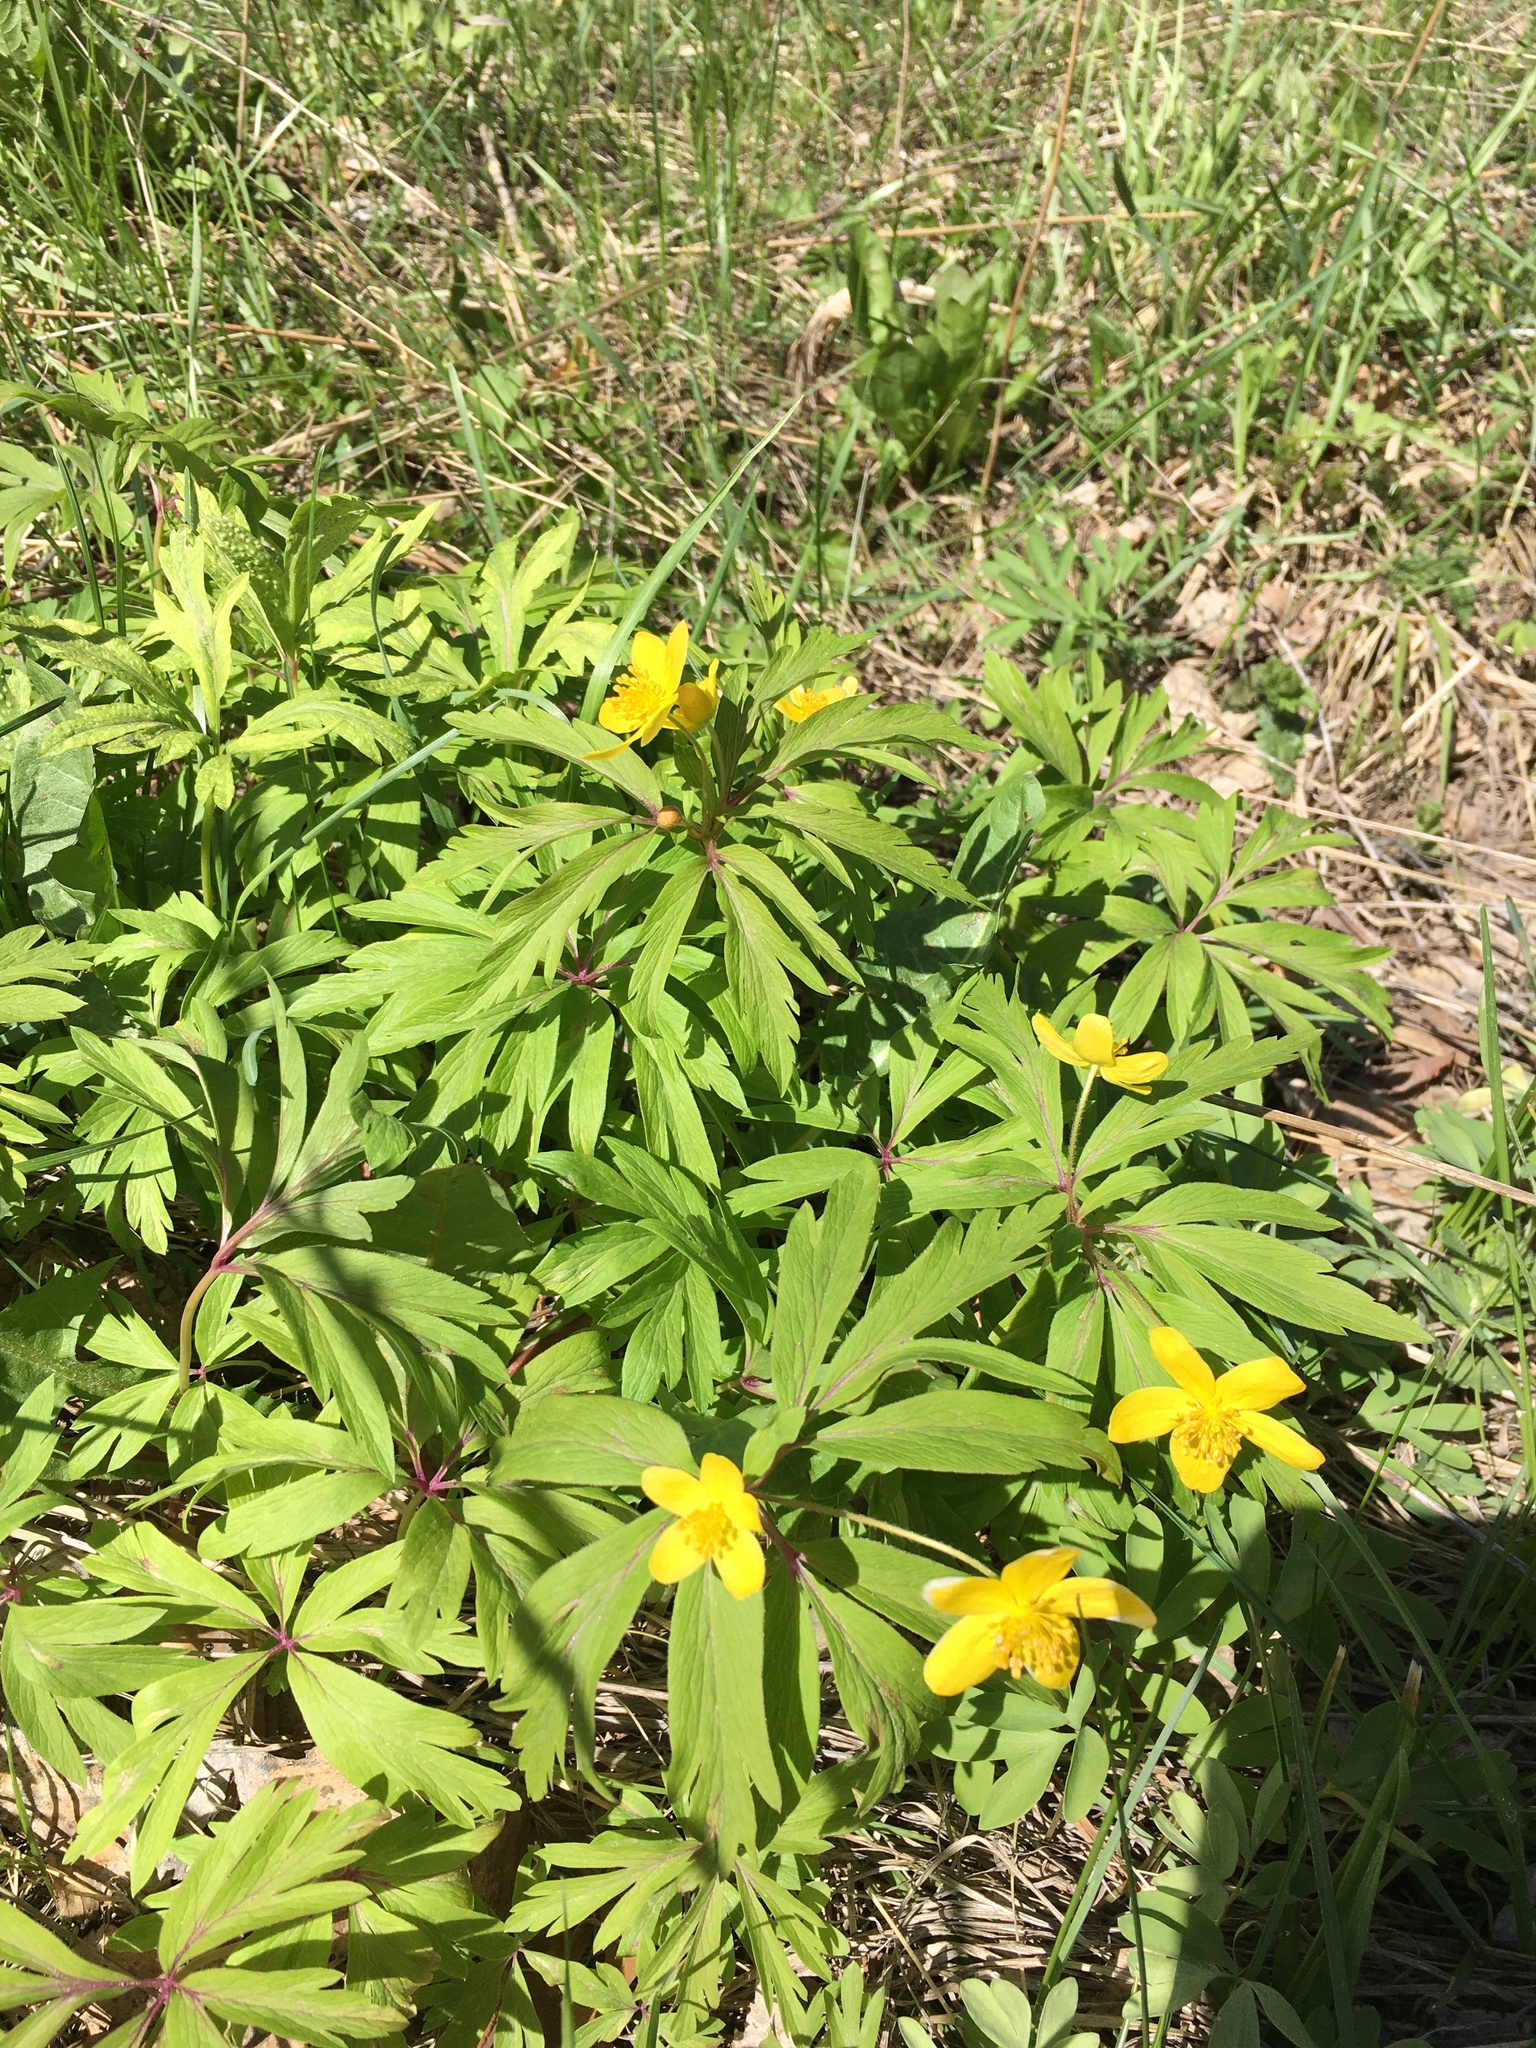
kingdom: Plantae
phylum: Tracheophyta
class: Magnoliopsida
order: Ranunculales
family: Ranunculaceae
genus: Anemone
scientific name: Anemone ranunculoides
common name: Yellow anemone
